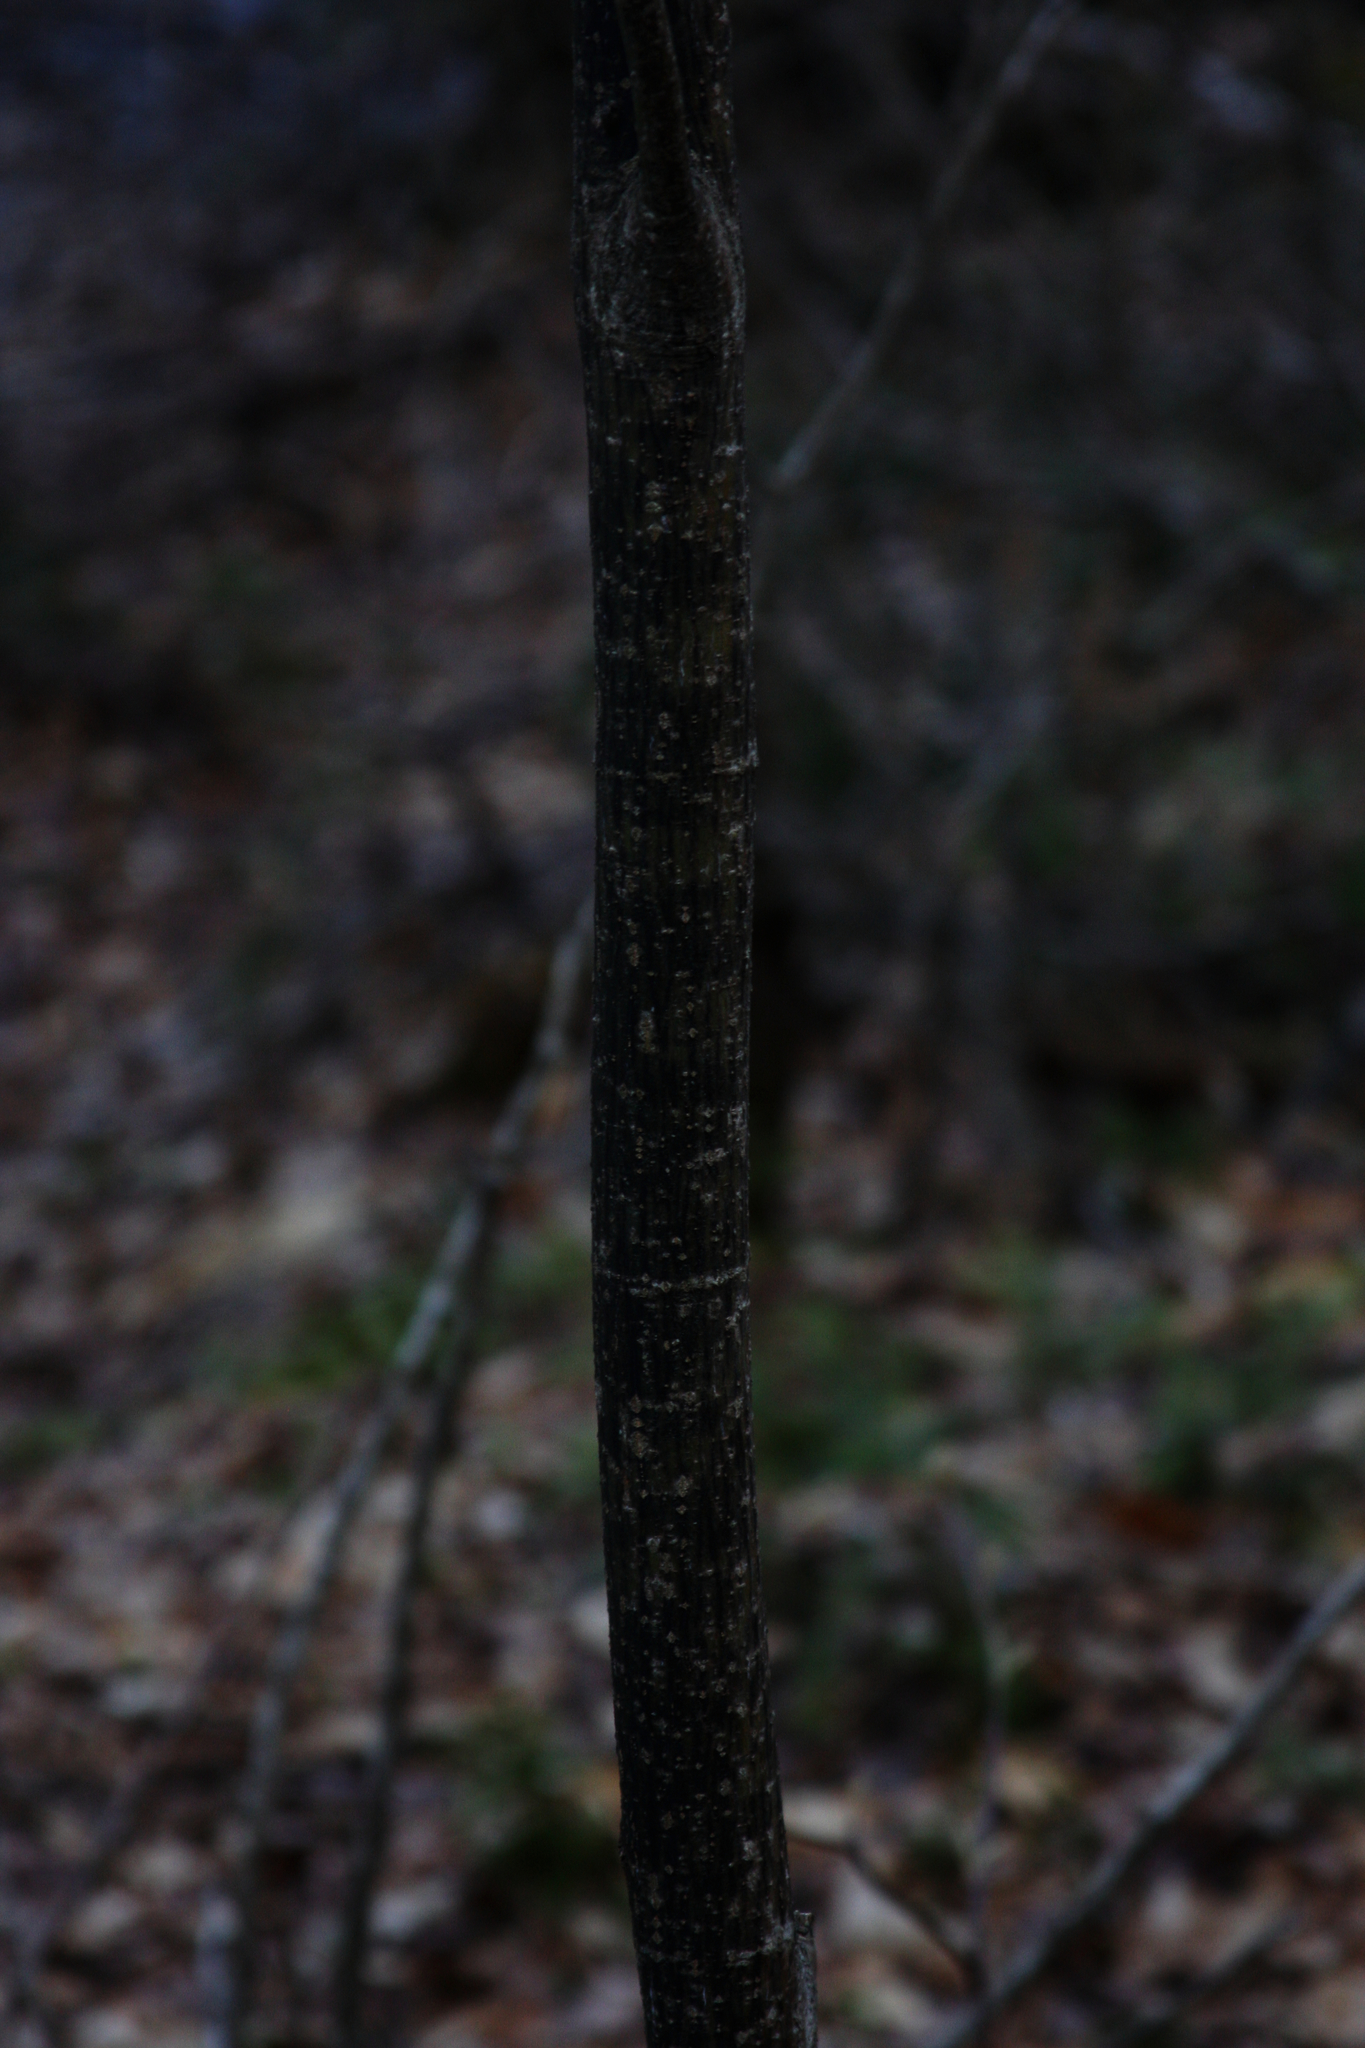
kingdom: Plantae
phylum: Tracheophyta
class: Magnoliopsida
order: Sapindales
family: Sapindaceae
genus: Acer
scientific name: Acer pensylvanicum
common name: Moosewood
